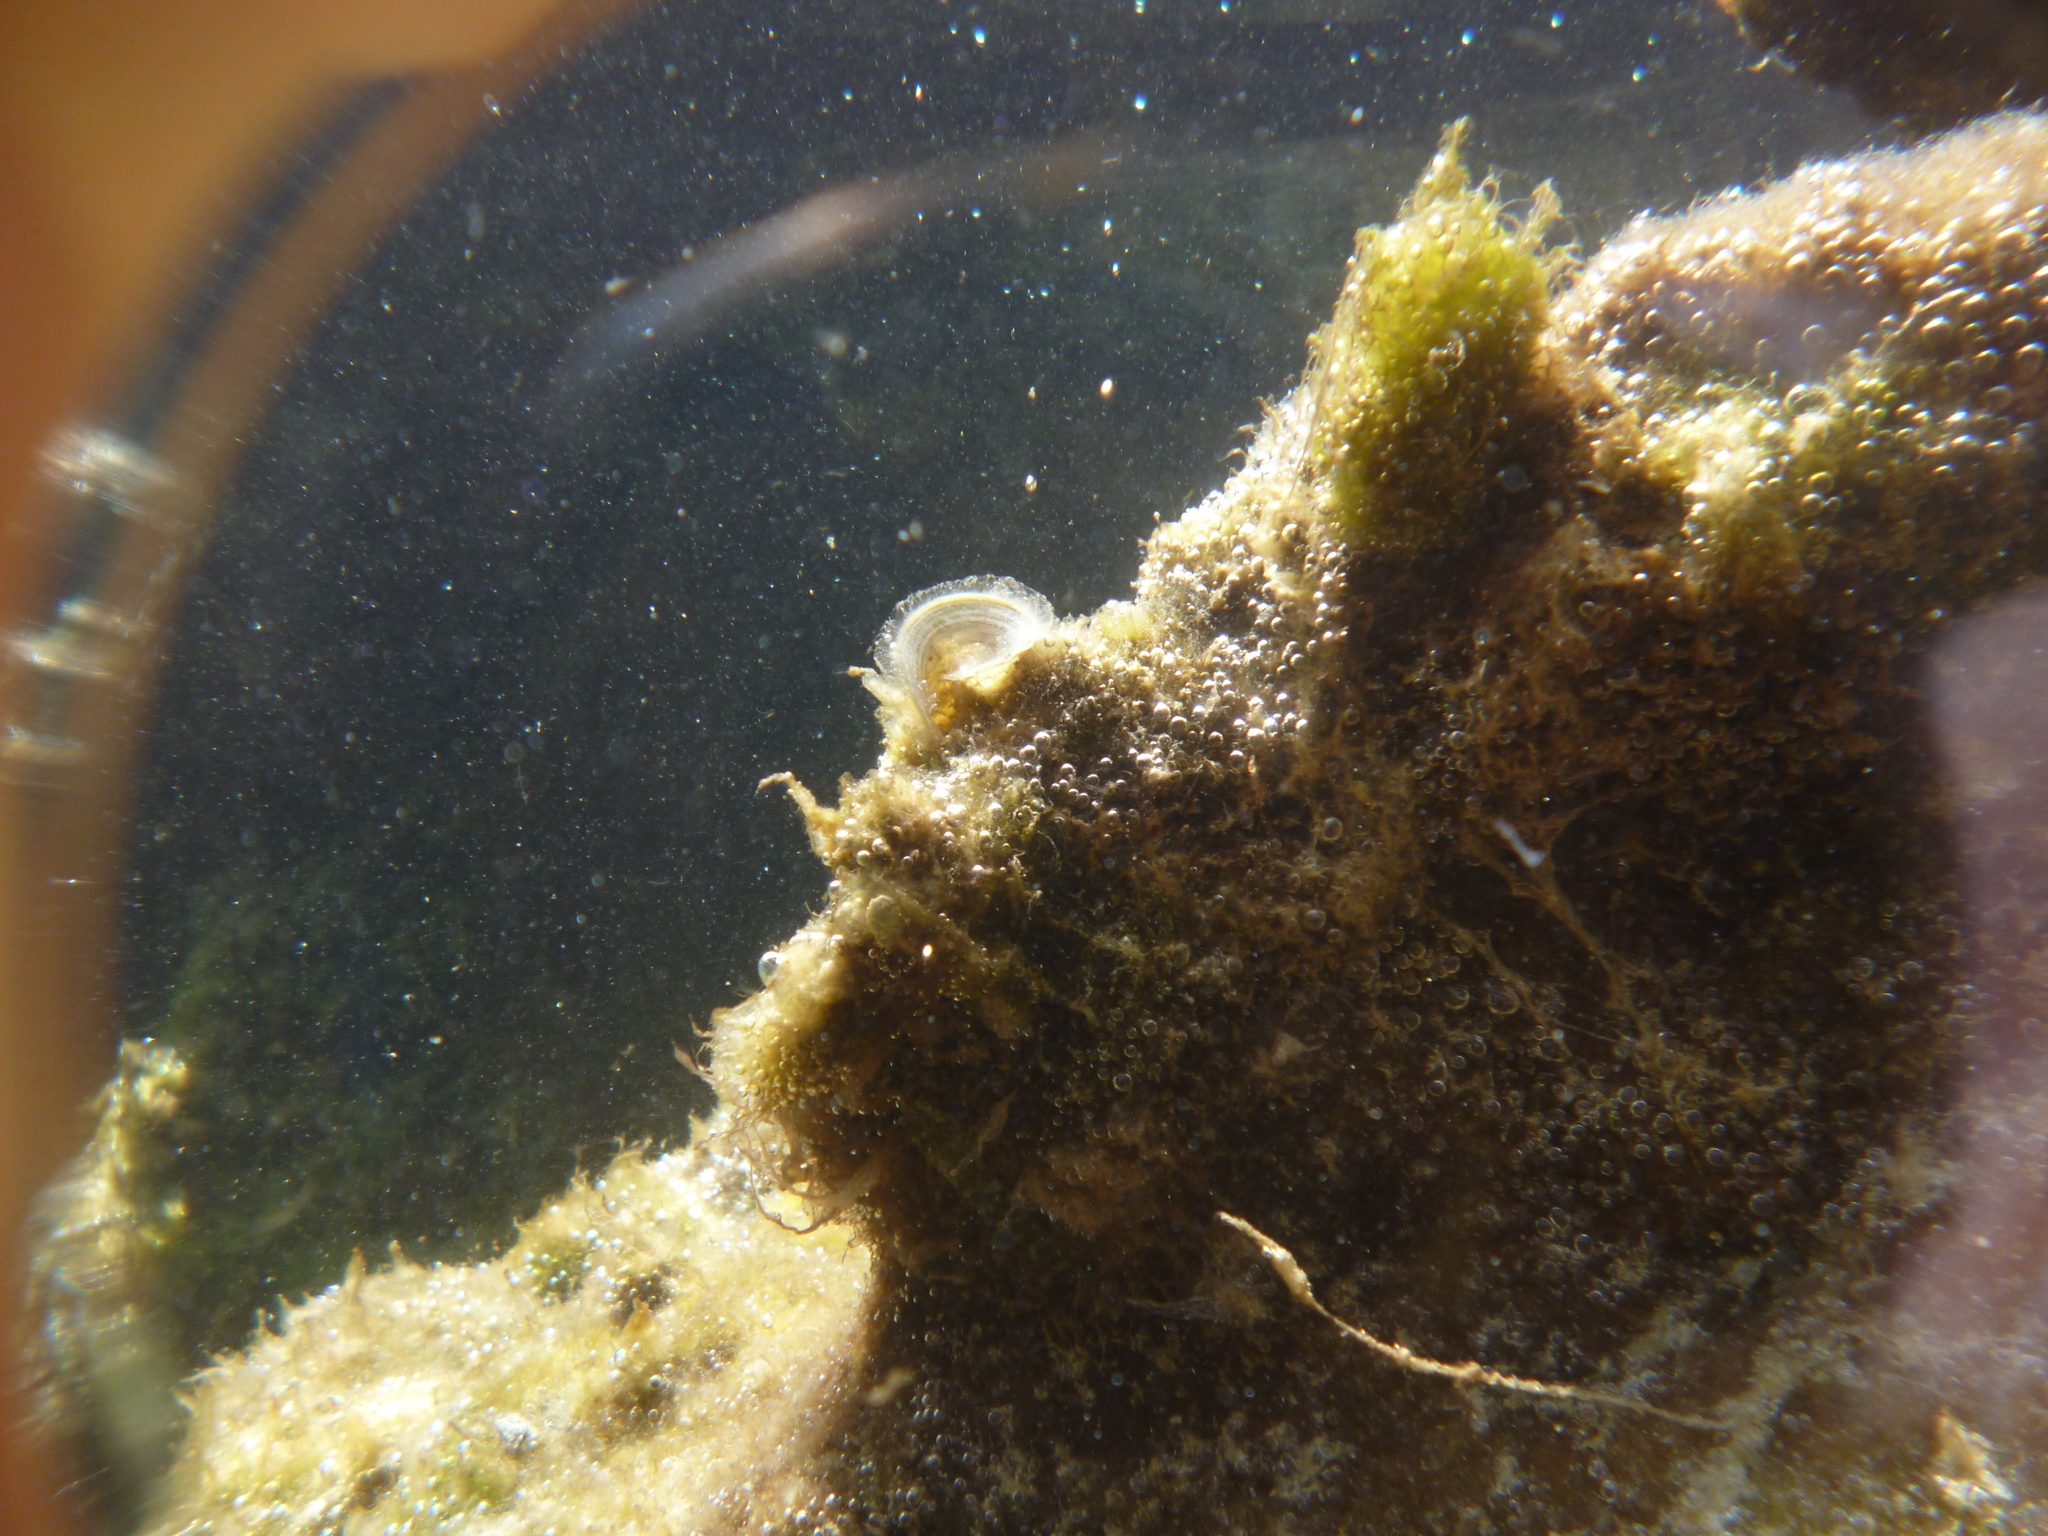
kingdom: Chromista
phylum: Ochrophyta
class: Phaeophyceae
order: Dictyotales
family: Dictyotaceae
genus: Padina
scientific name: Padina pavonica
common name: Turkey feather alga
